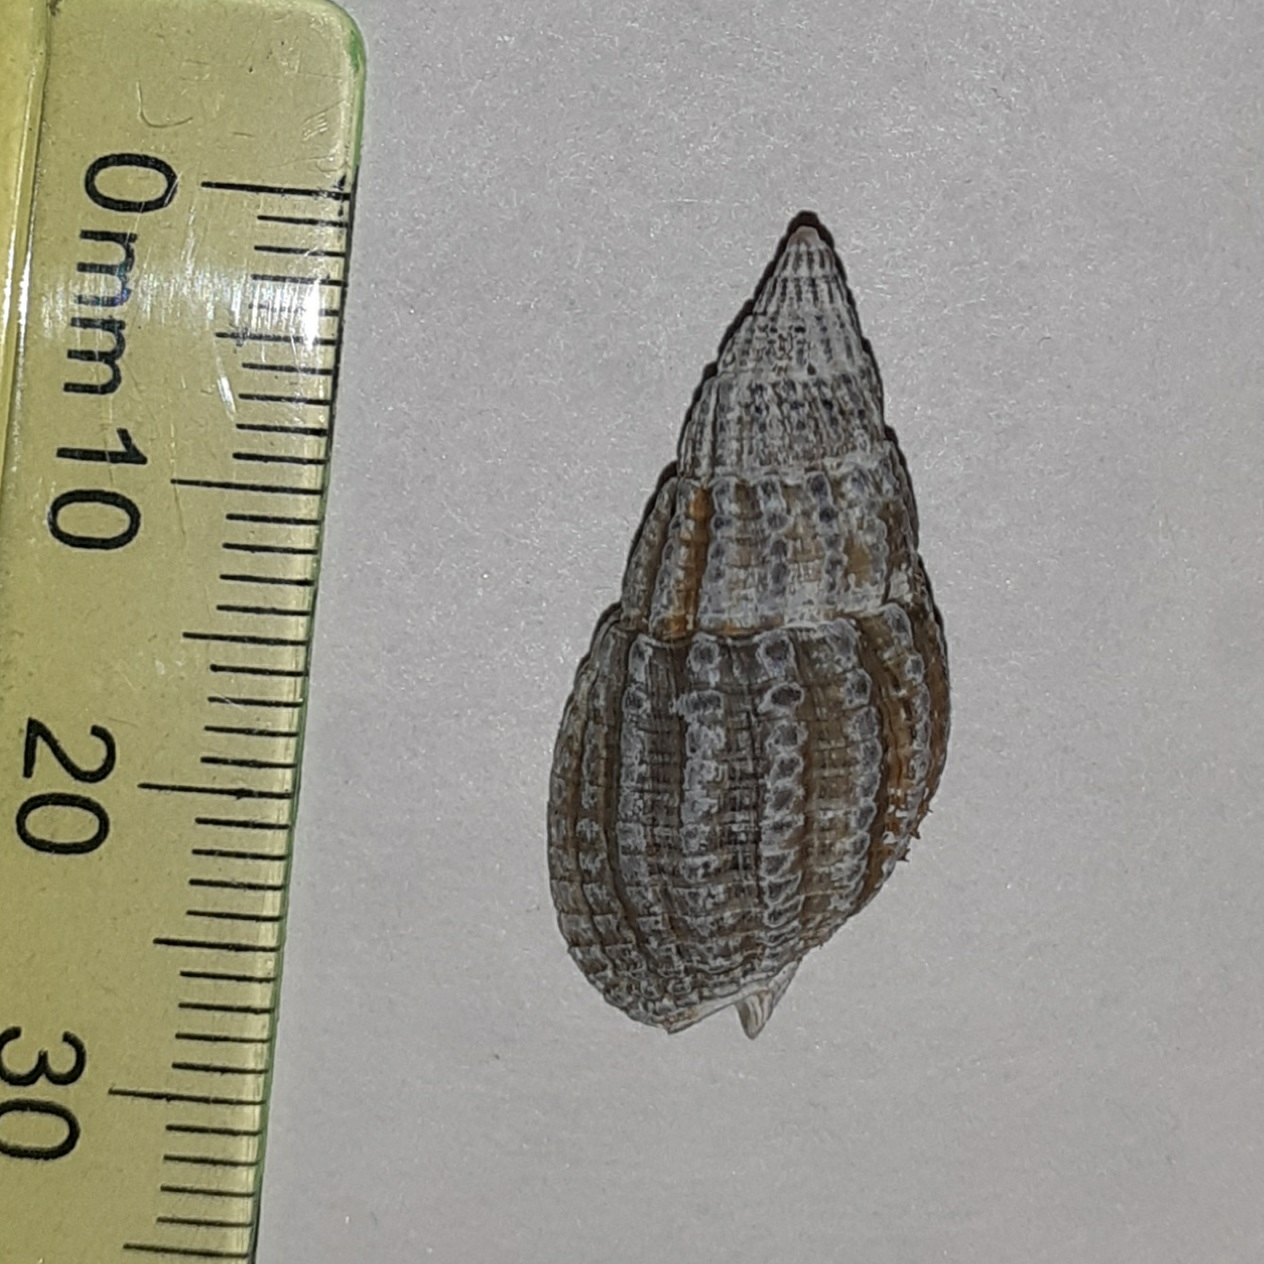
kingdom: Animalia
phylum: Mollusca
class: Gastropoda
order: Neogastropoda
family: Nassariidae
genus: Tritia
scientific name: Tritia reticulata
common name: Netted dog whelk
